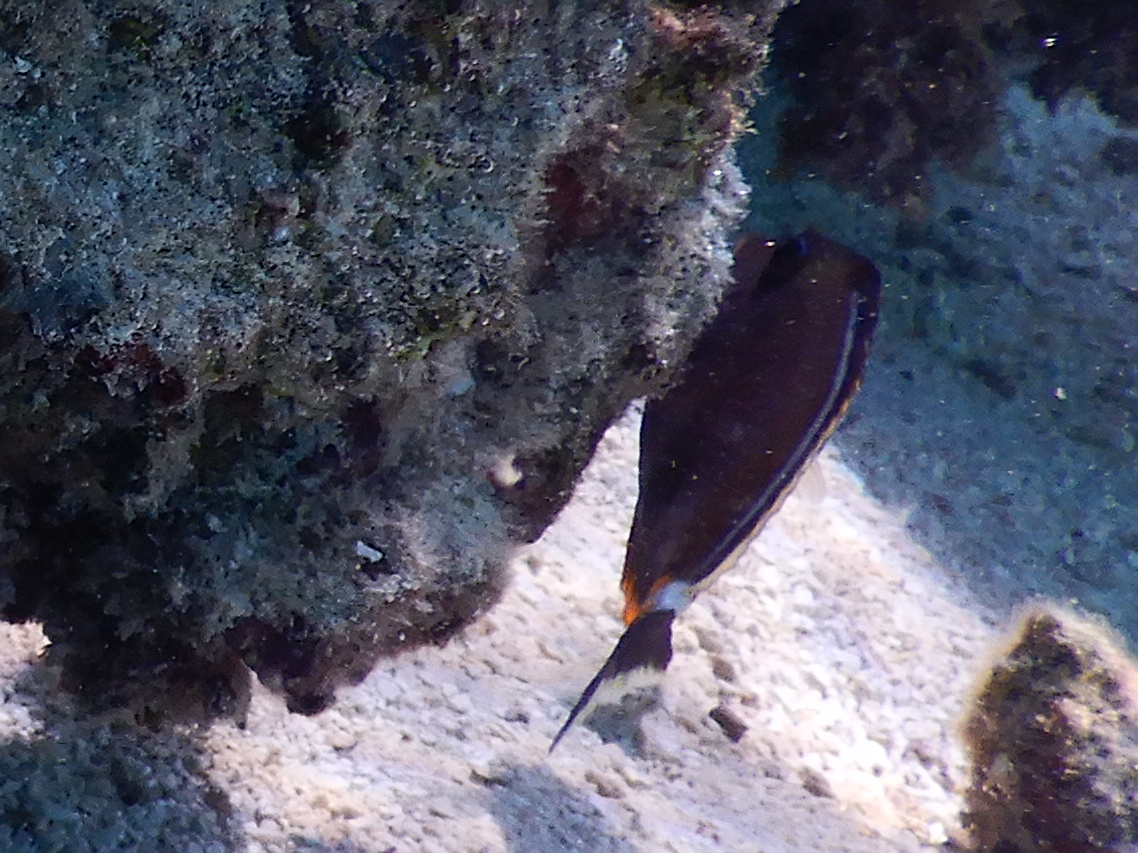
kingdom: Animalia
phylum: Chordata
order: Perciformes
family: Acanthuridae
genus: Naso
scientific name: Naso lituratus
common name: Orangespine unicornfish
